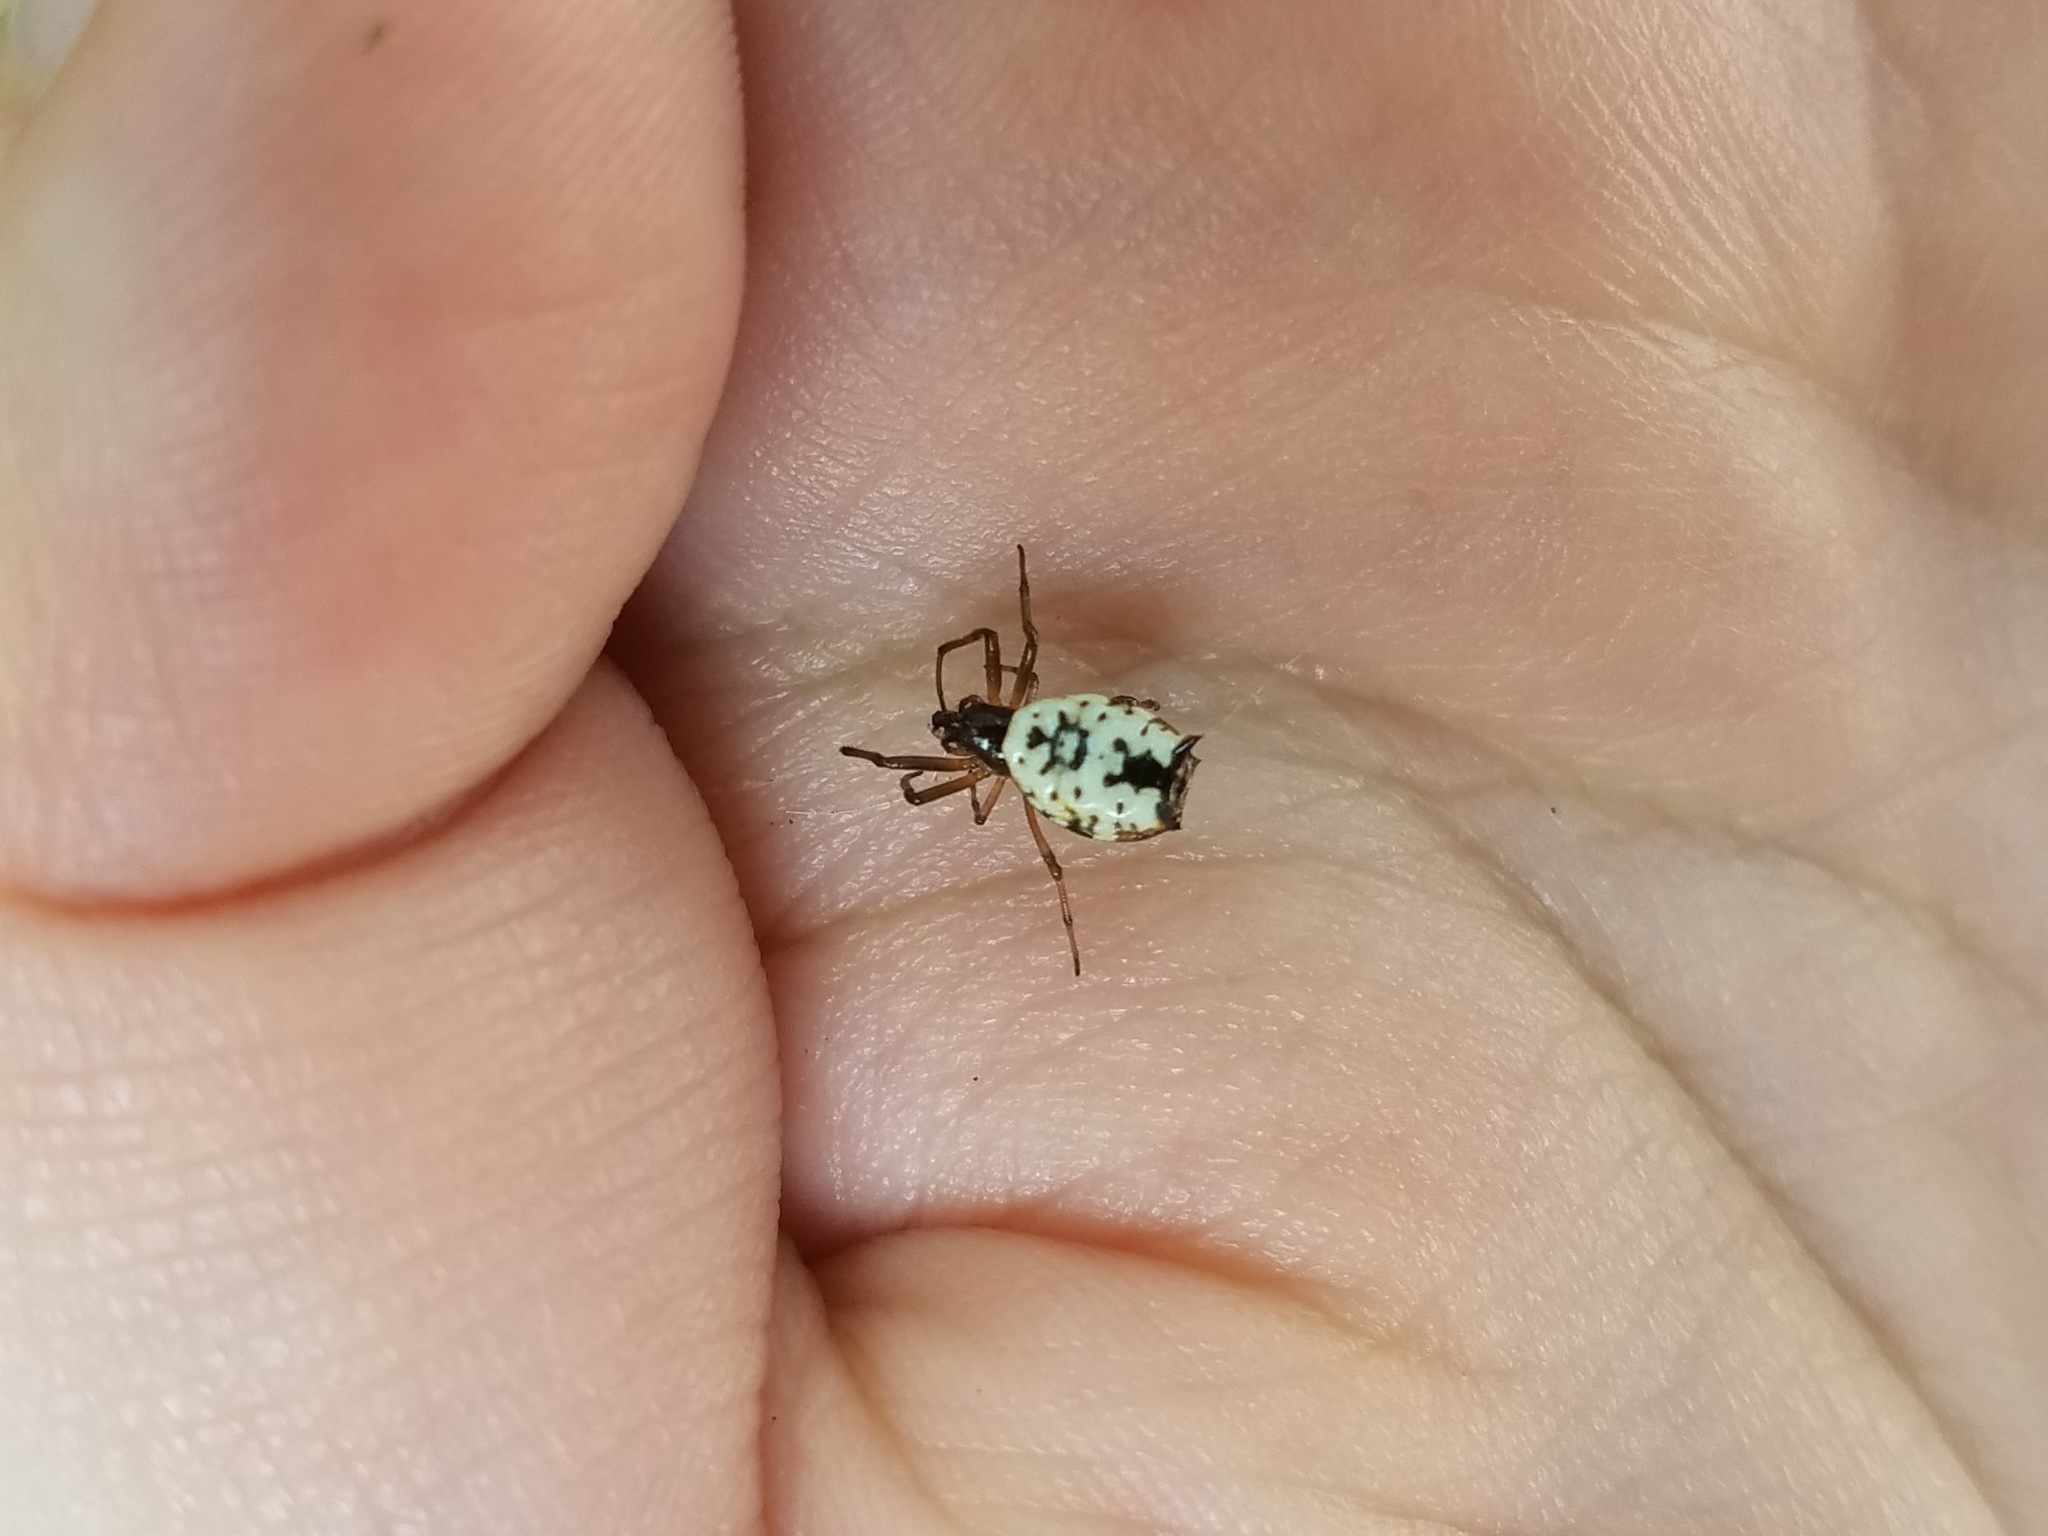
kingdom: Animalia
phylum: Arthropoda
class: Arachnida
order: Araneae
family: Araneidae
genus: Micrathena
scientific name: Micrathena mitrata
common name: Orb weavers
